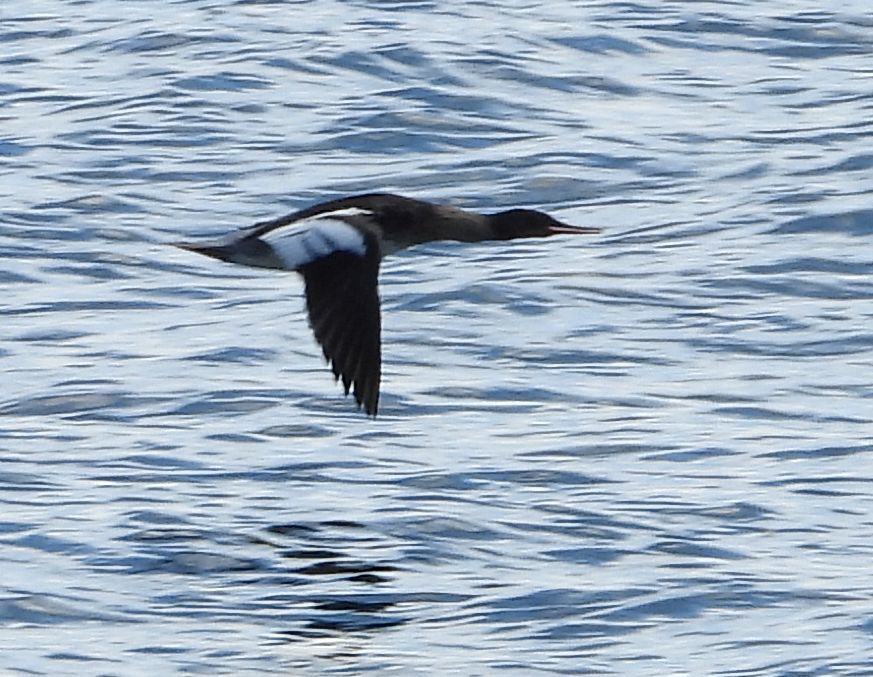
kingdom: Animalia
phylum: Chordata
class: Aves
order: Anseriformes
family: Anatidae
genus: Mergus
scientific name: Mergus serrator
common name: Red-breasted merganser
